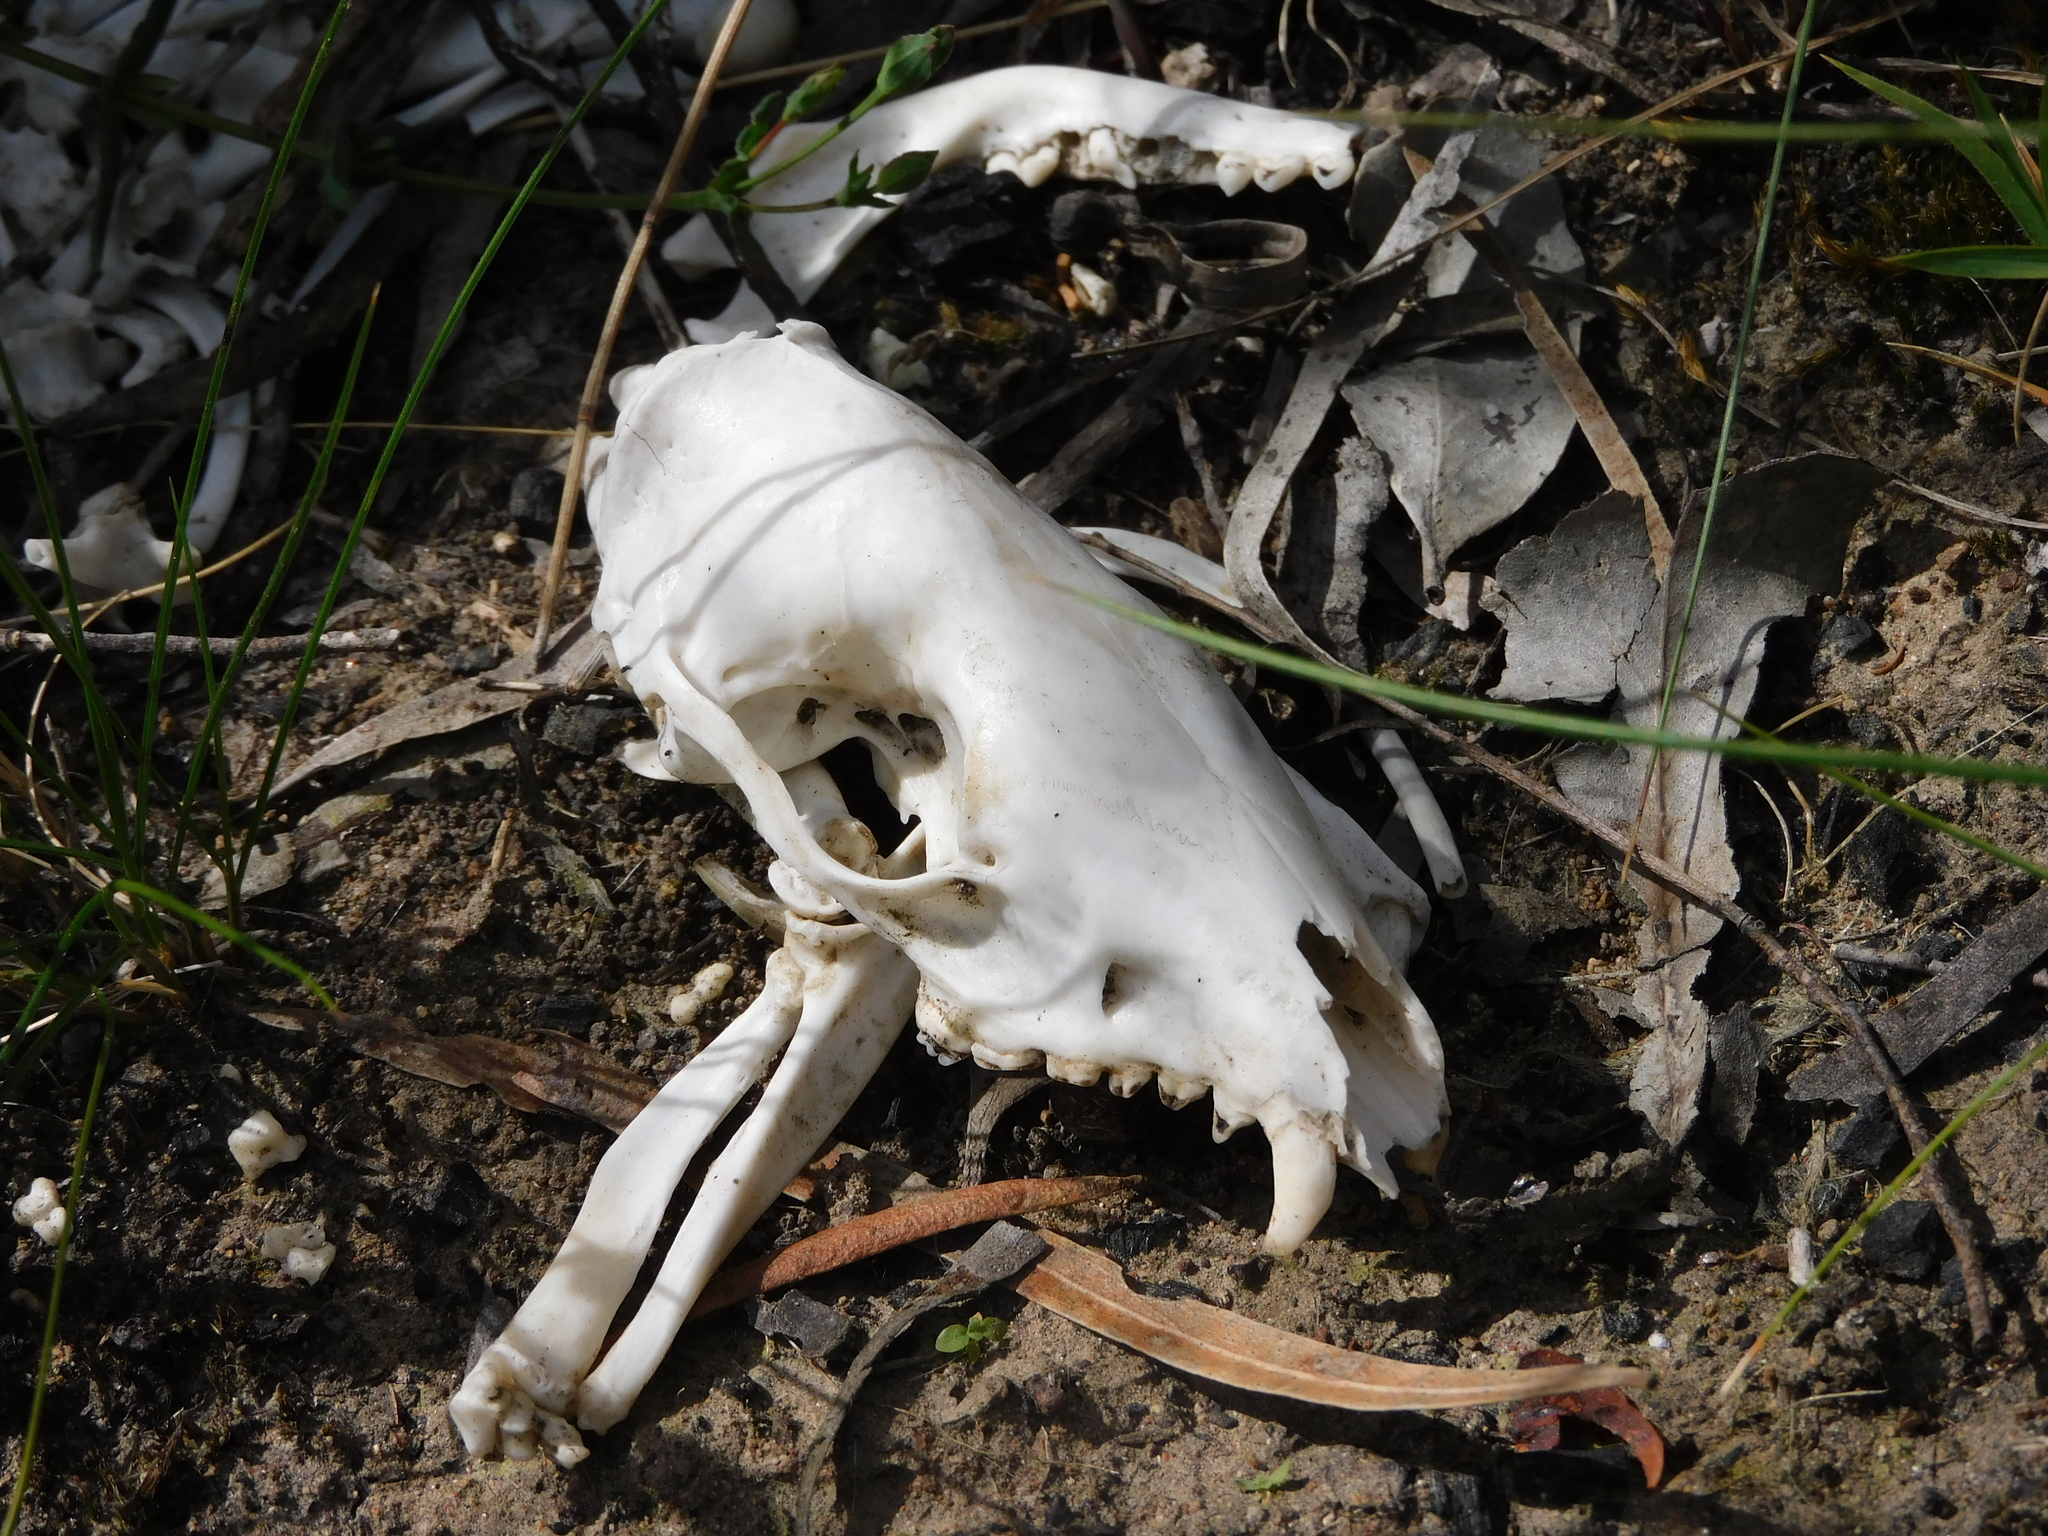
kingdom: Animalia
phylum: Chordata
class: Mammalia
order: Dasyuromorphia
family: Dasyuridae
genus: Dasyurus
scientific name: Dasyurus viverrinus
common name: Eastern quoll
